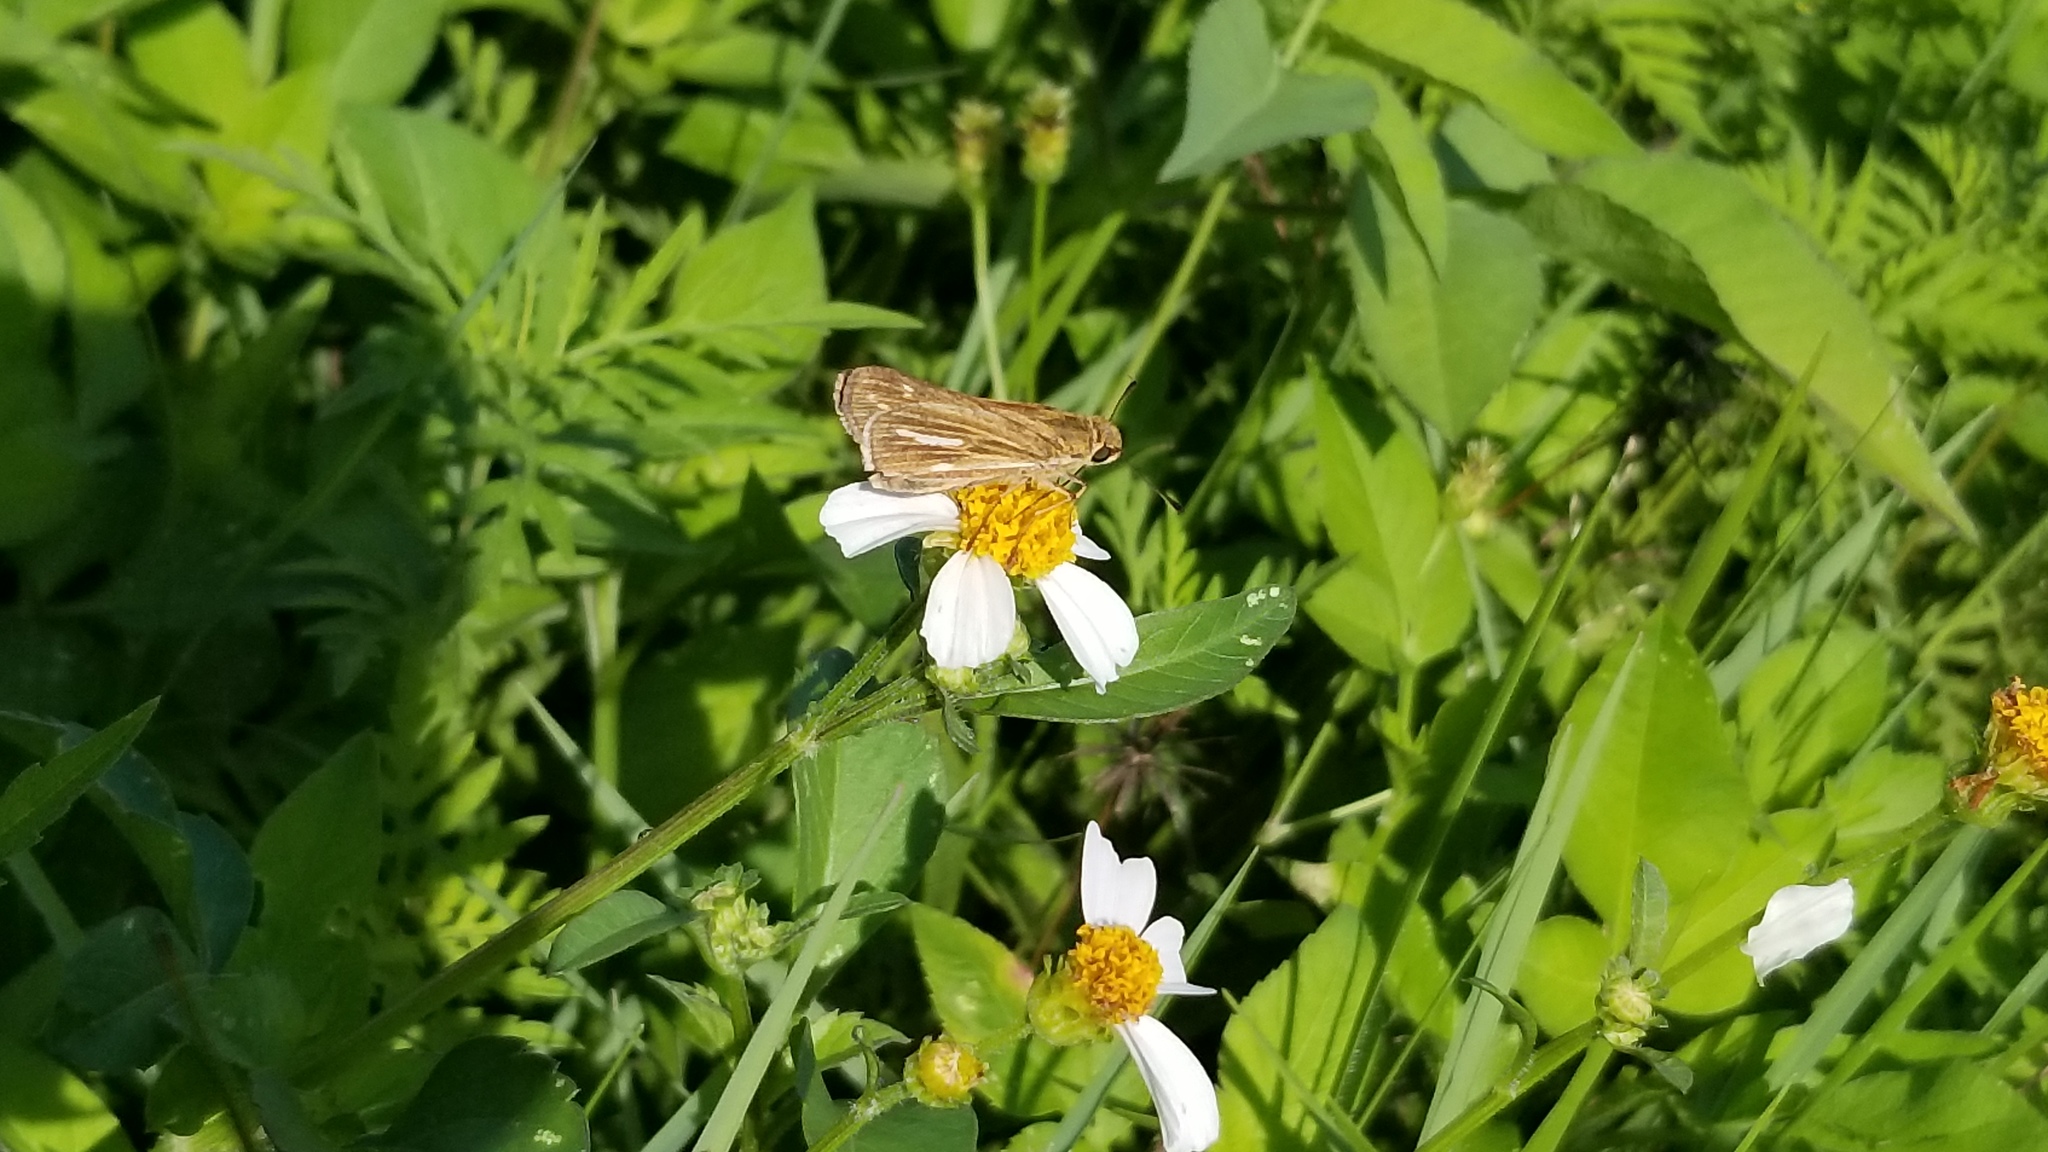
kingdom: Animalia
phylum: Arthropoda
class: Insecta
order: Lepidoptera
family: Hesperiidae
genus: Panoquina
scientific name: Panoquina panoquin
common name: Salt marsh skipper
